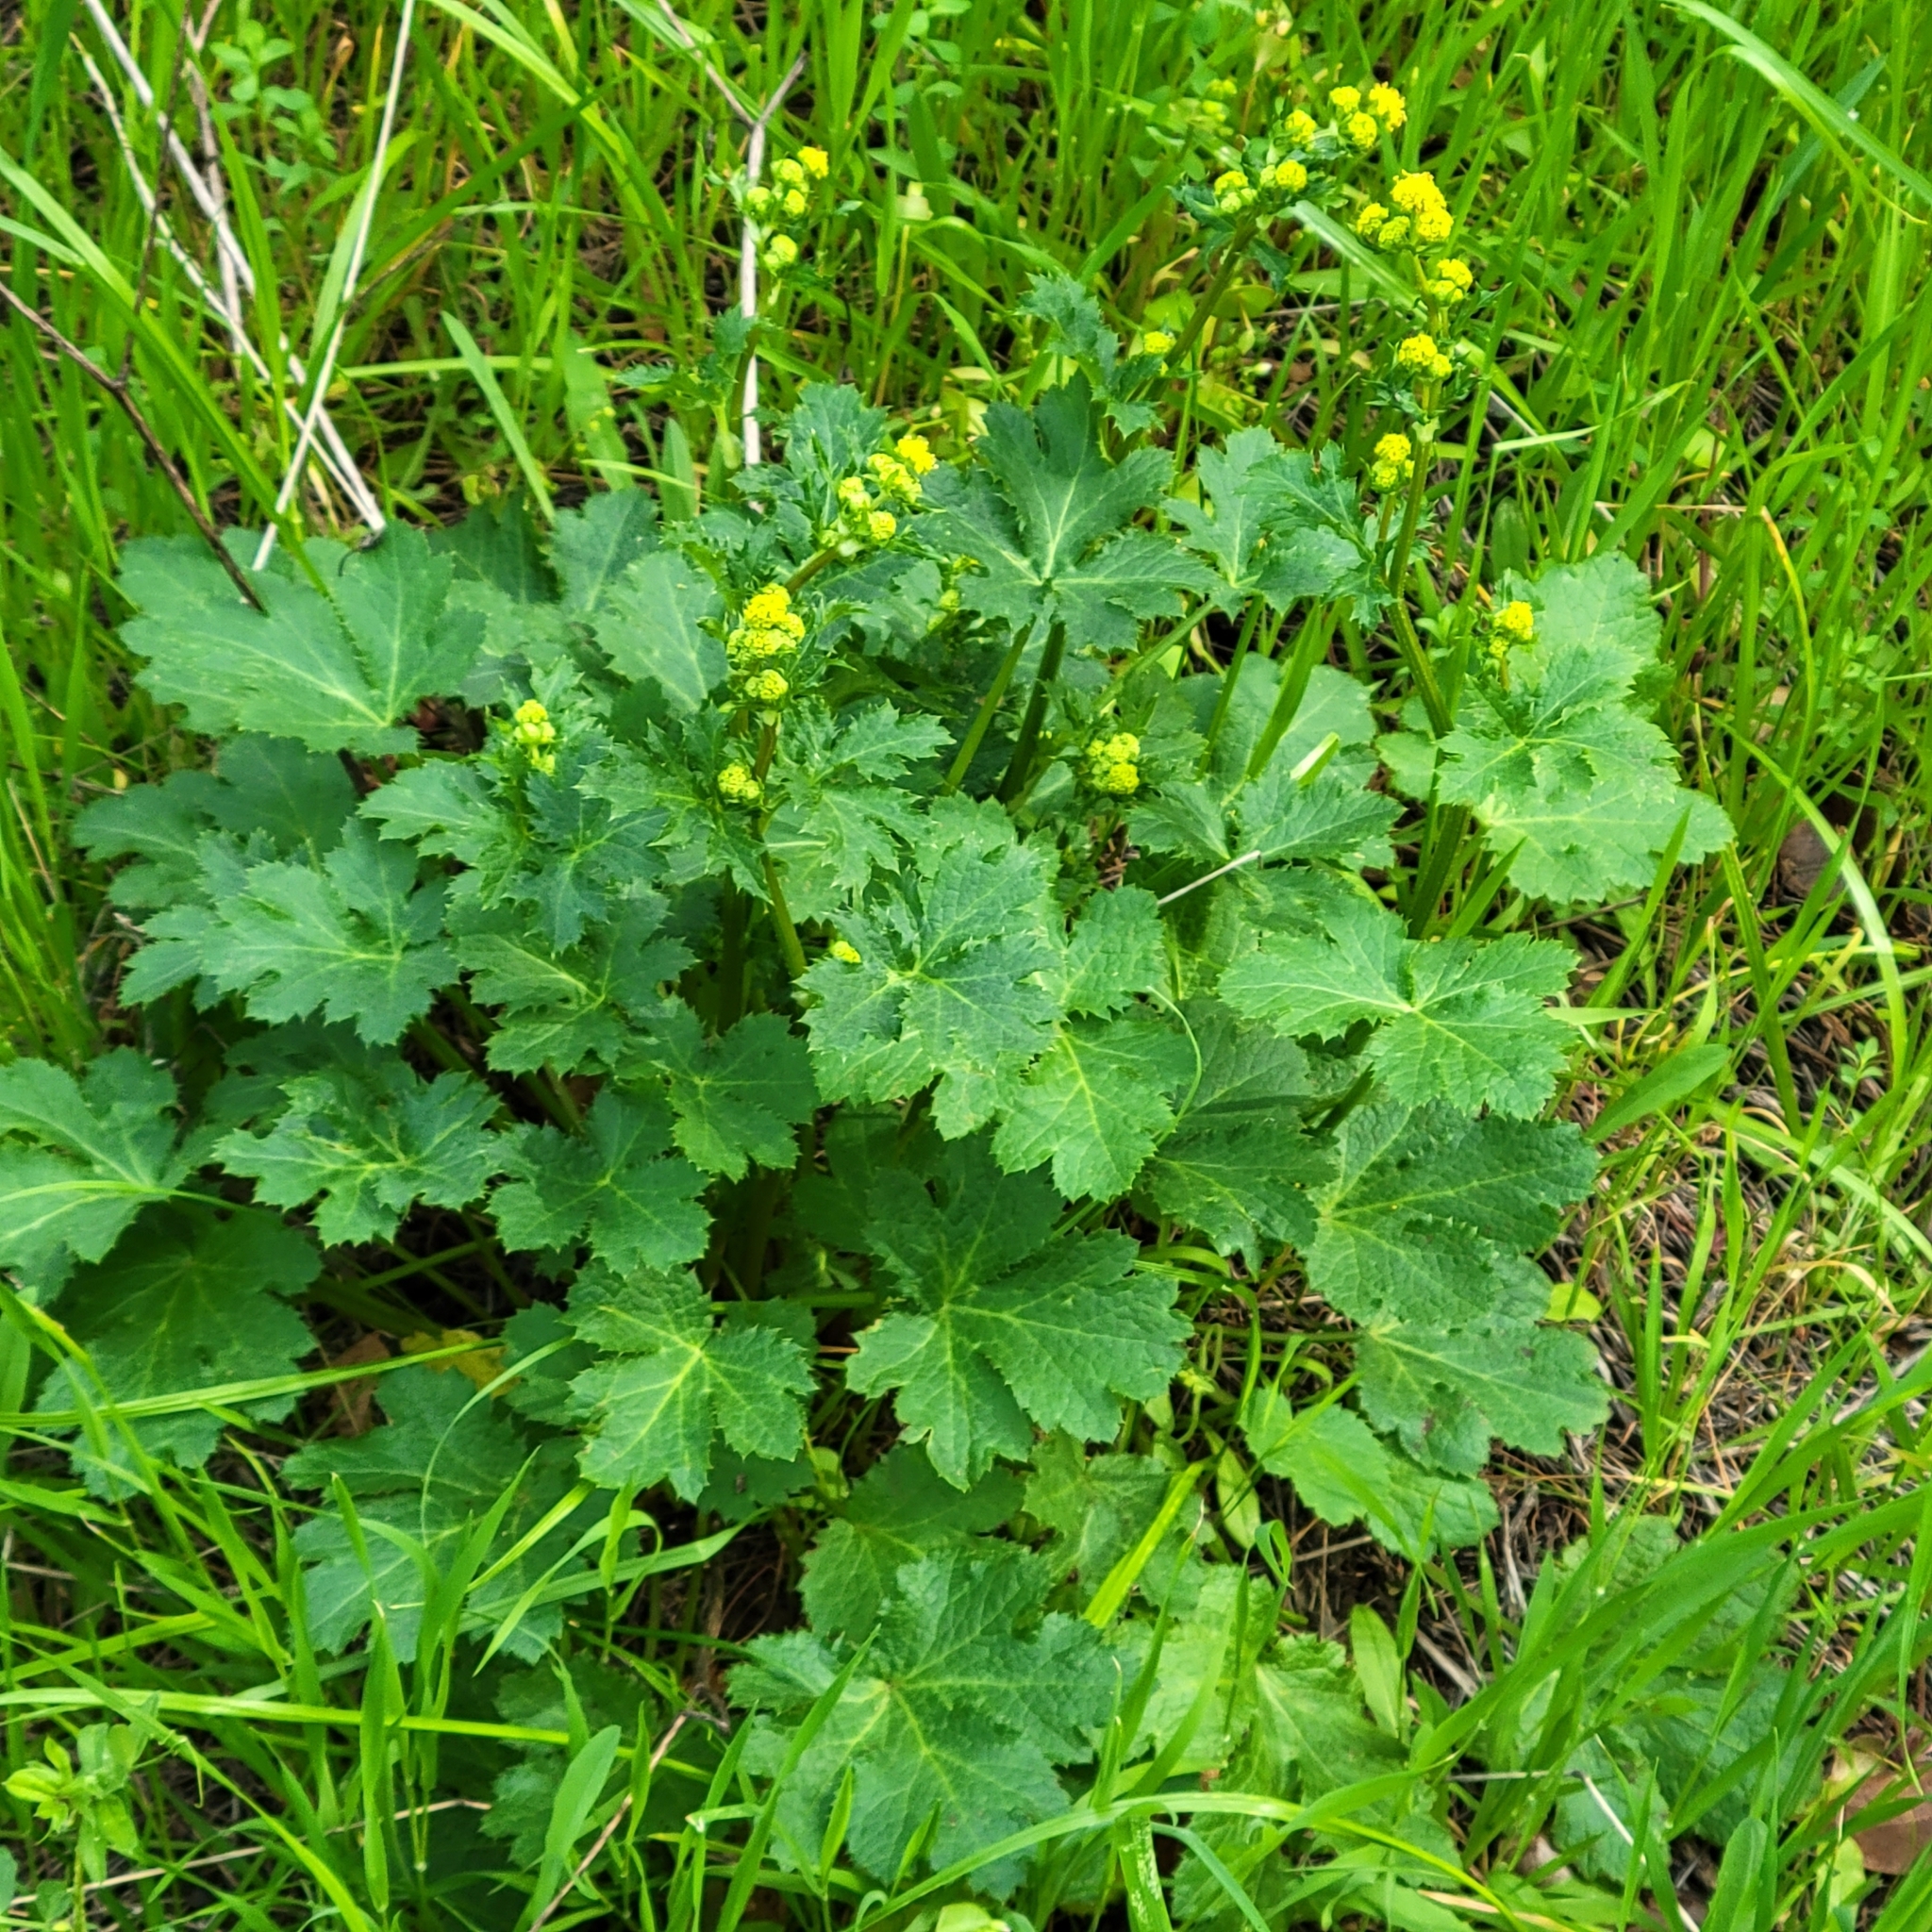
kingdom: Plantae
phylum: Tracheophyta
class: Magnoliopsida
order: Apiales
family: Apiaceae
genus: Sanicula
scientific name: Sanicula crassicaulis
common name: Western snakeroot
